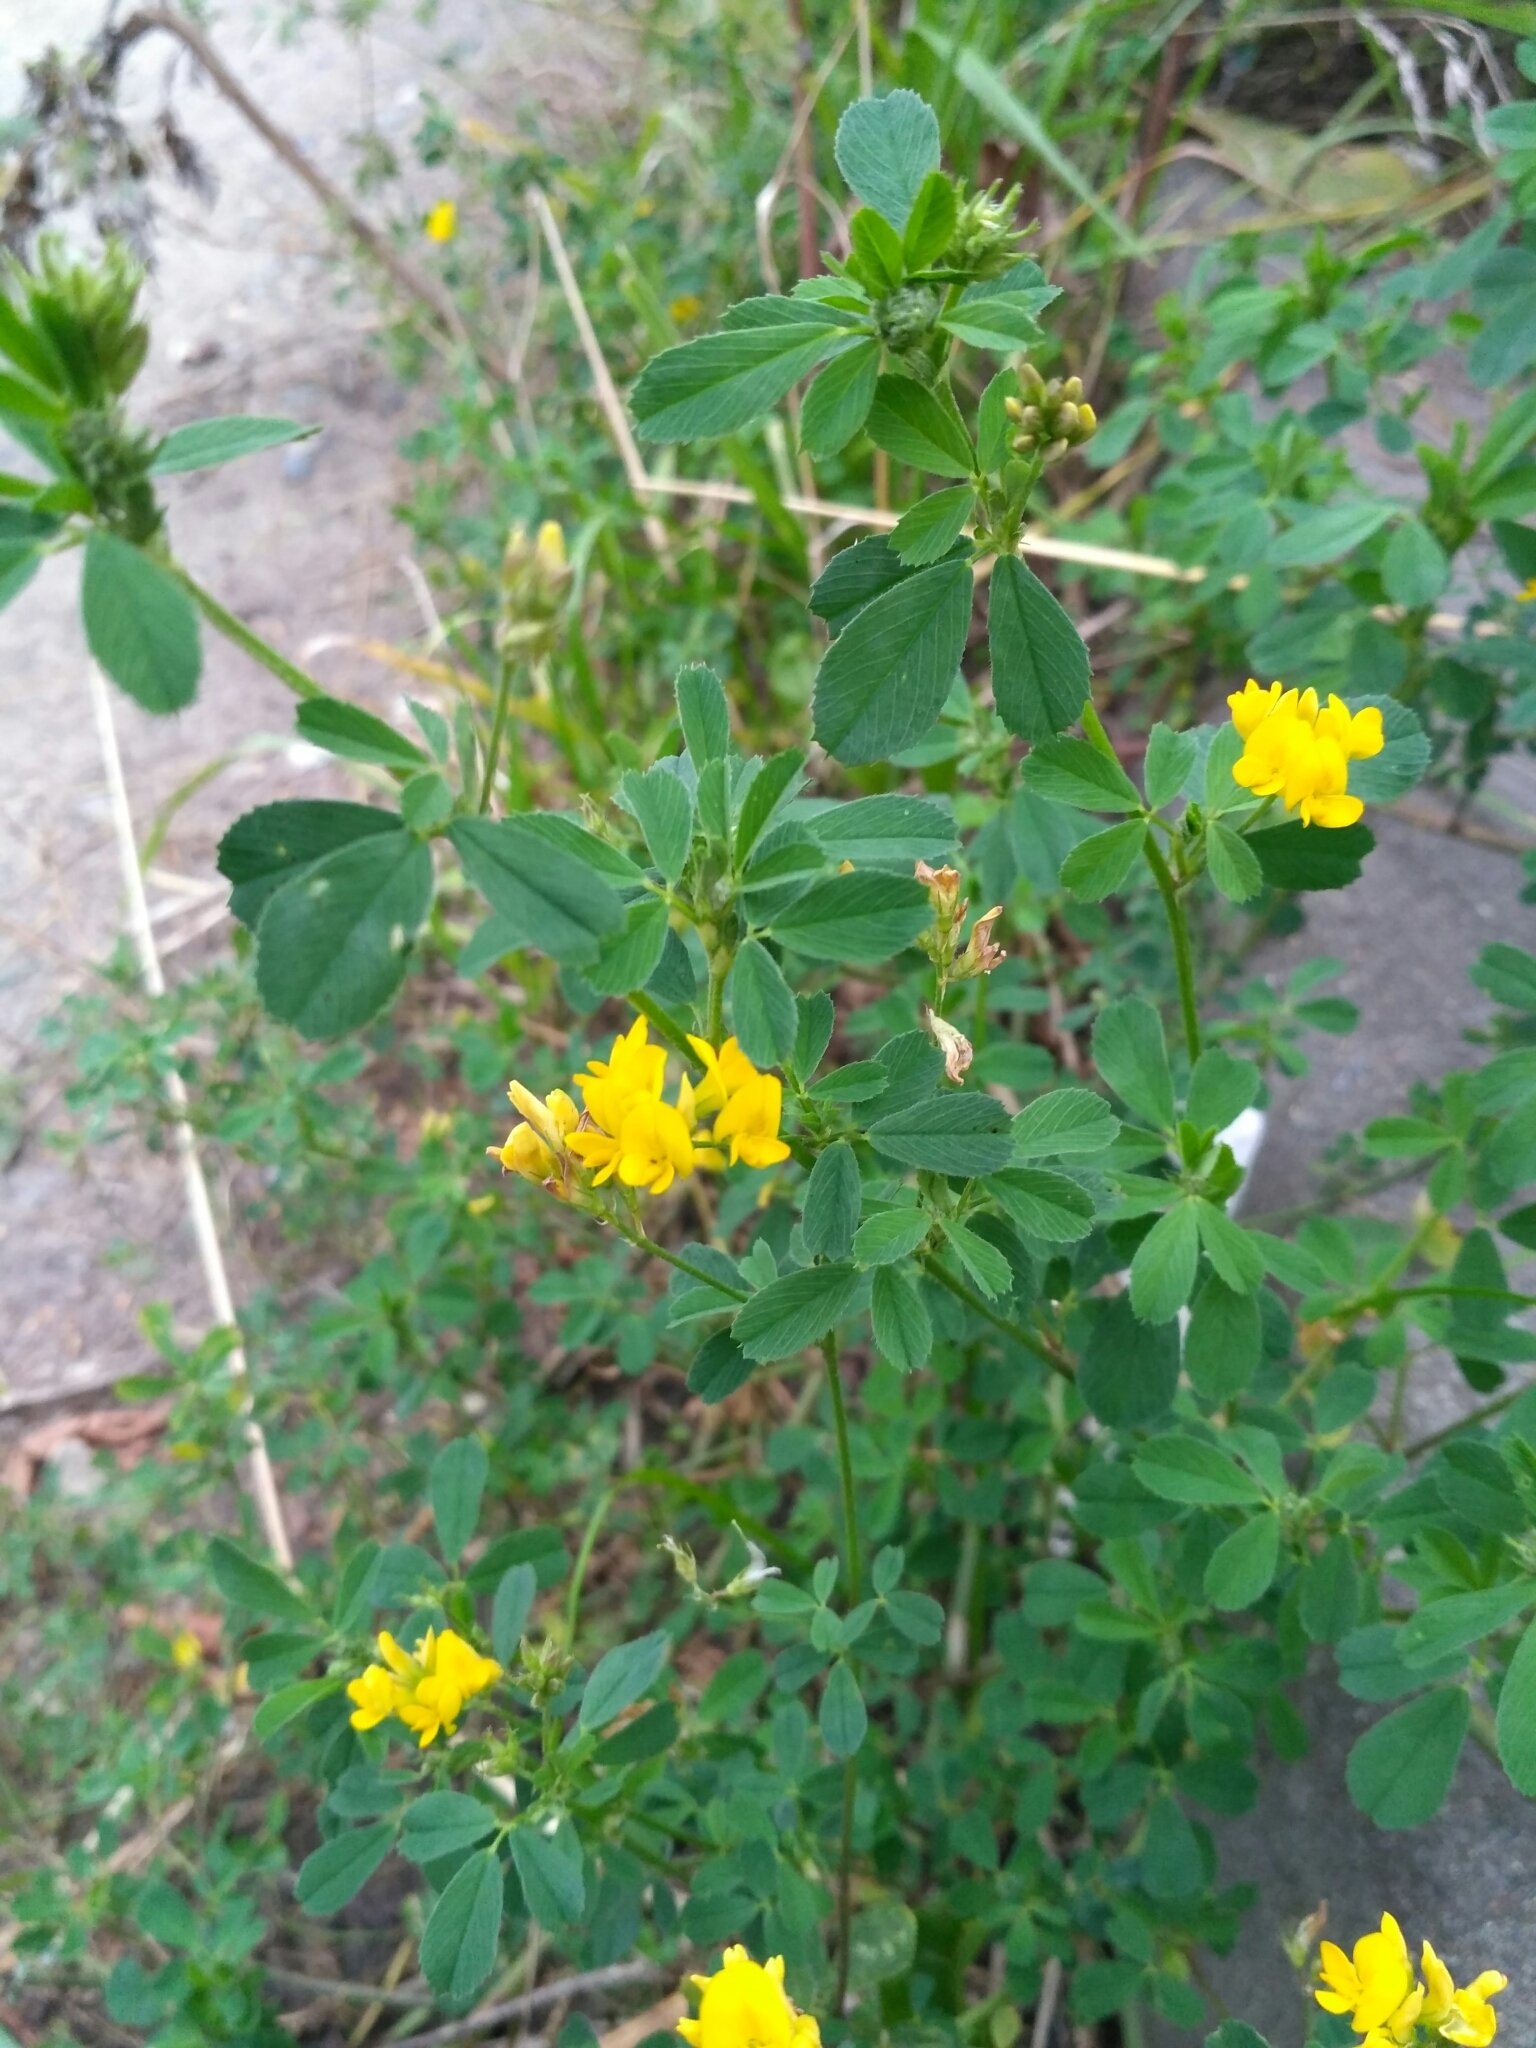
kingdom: Plantae
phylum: Tracheophyta
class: Magnoliopsida
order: Fabales
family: Fabaceae
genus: Medicago
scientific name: Medicago lupulina
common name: Black medick
